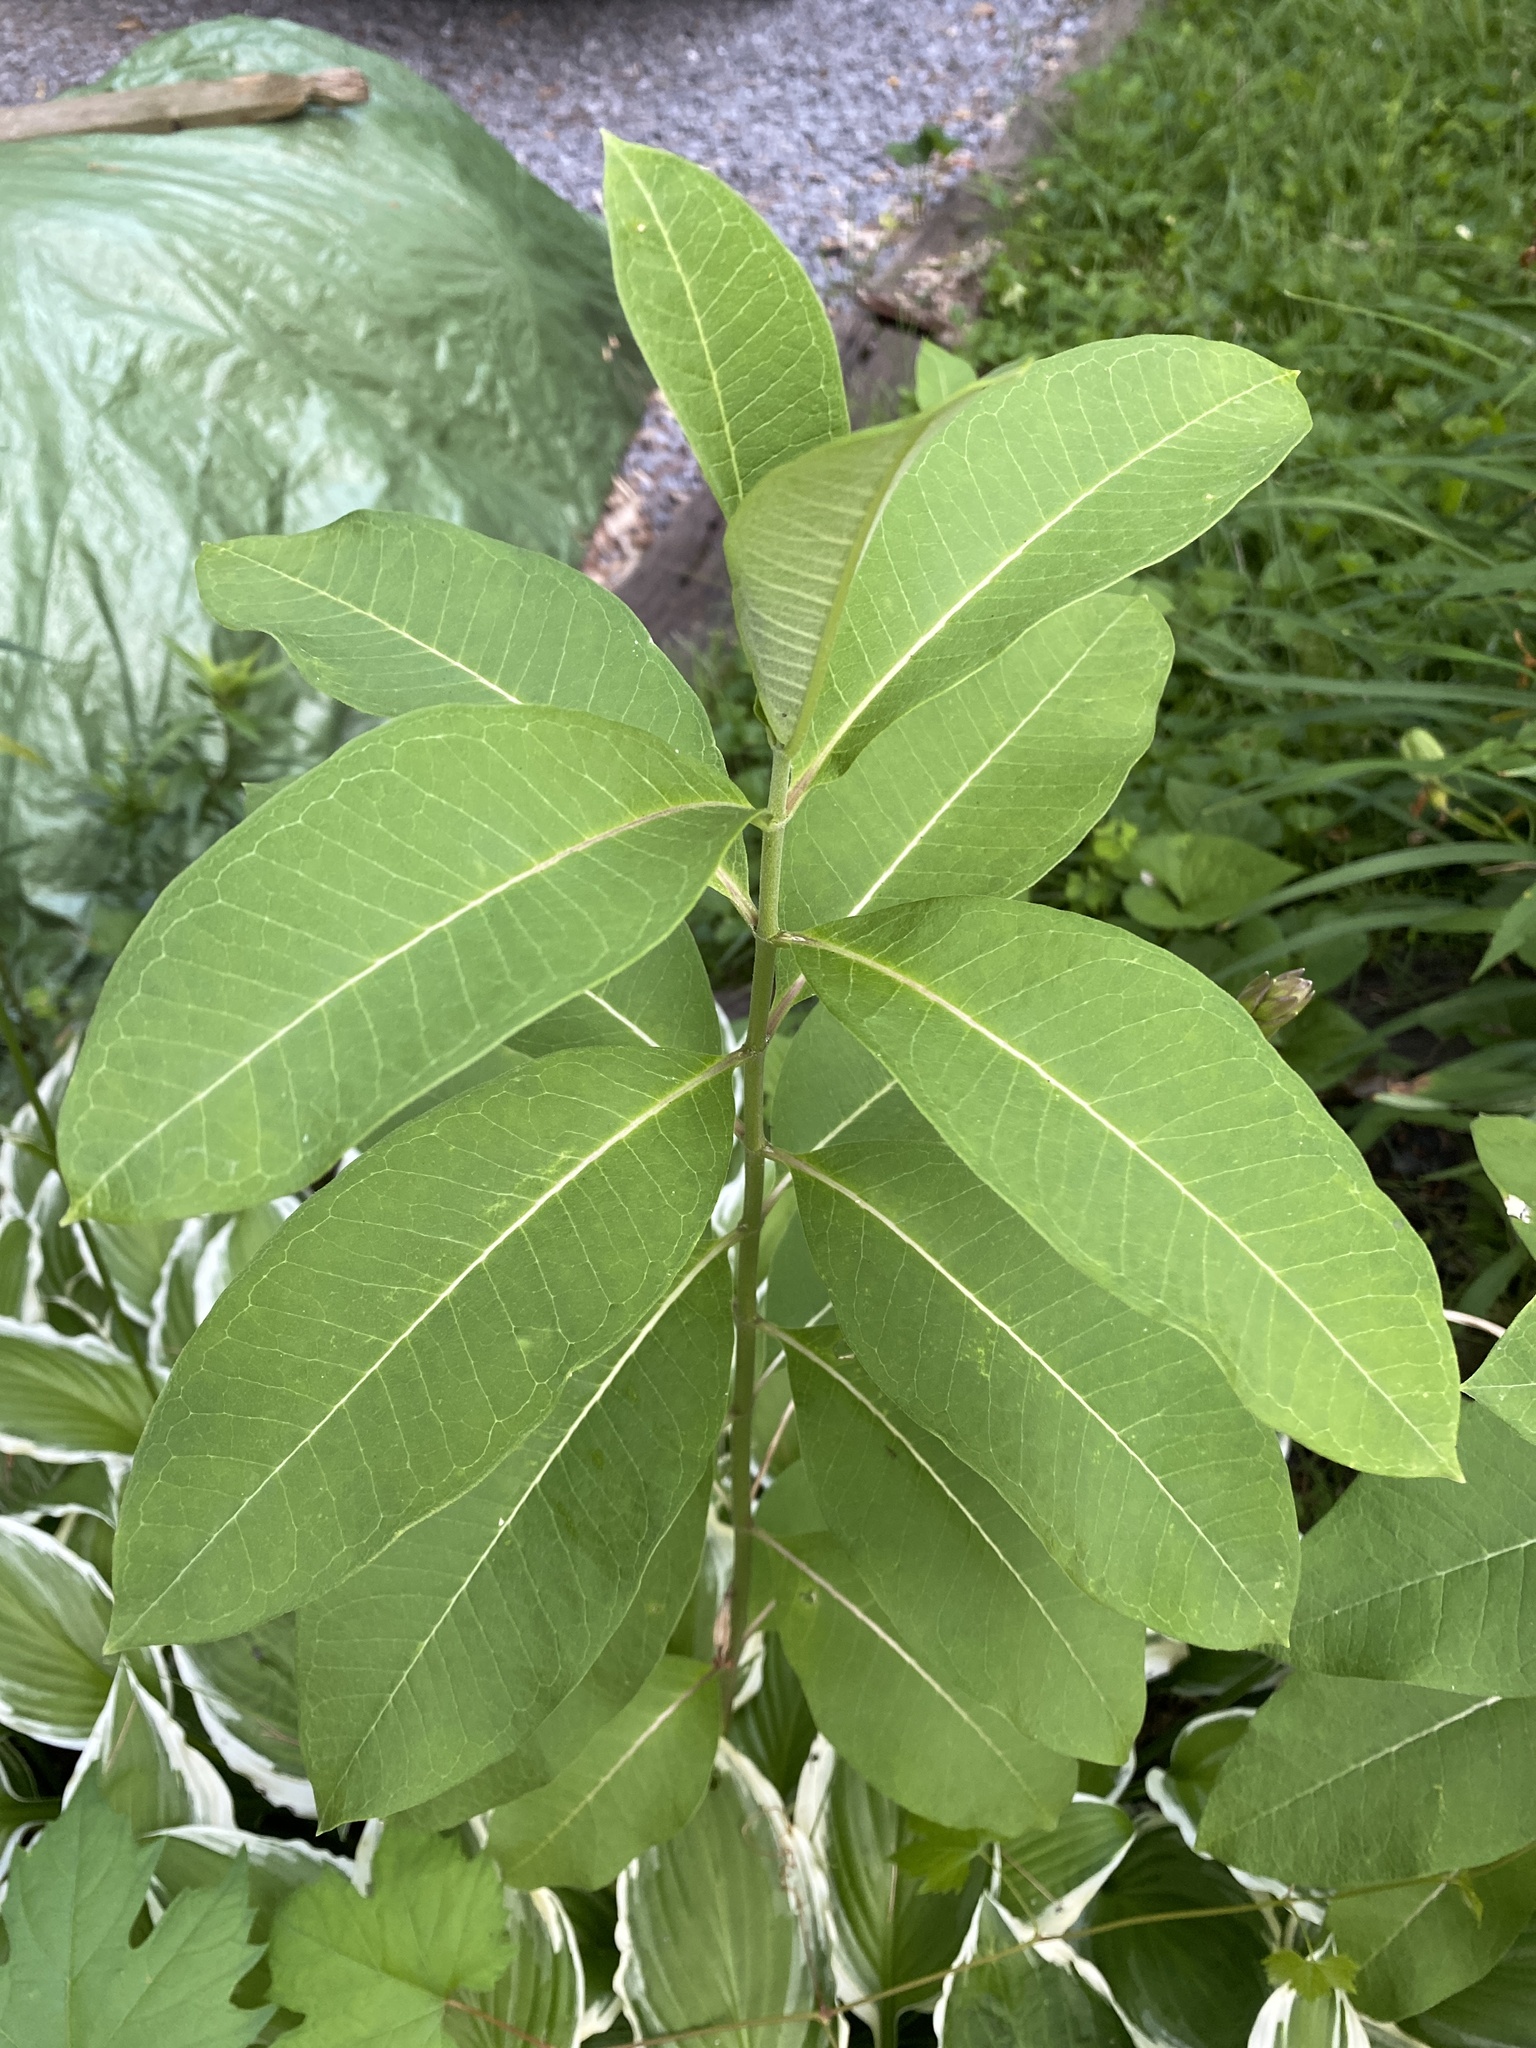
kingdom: Plantae
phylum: Tracheophyta
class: Magnoliopsida
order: Gentianales
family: Apocynaceae
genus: Asclepias
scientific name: Asclepias syriaca
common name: Common milkweed
